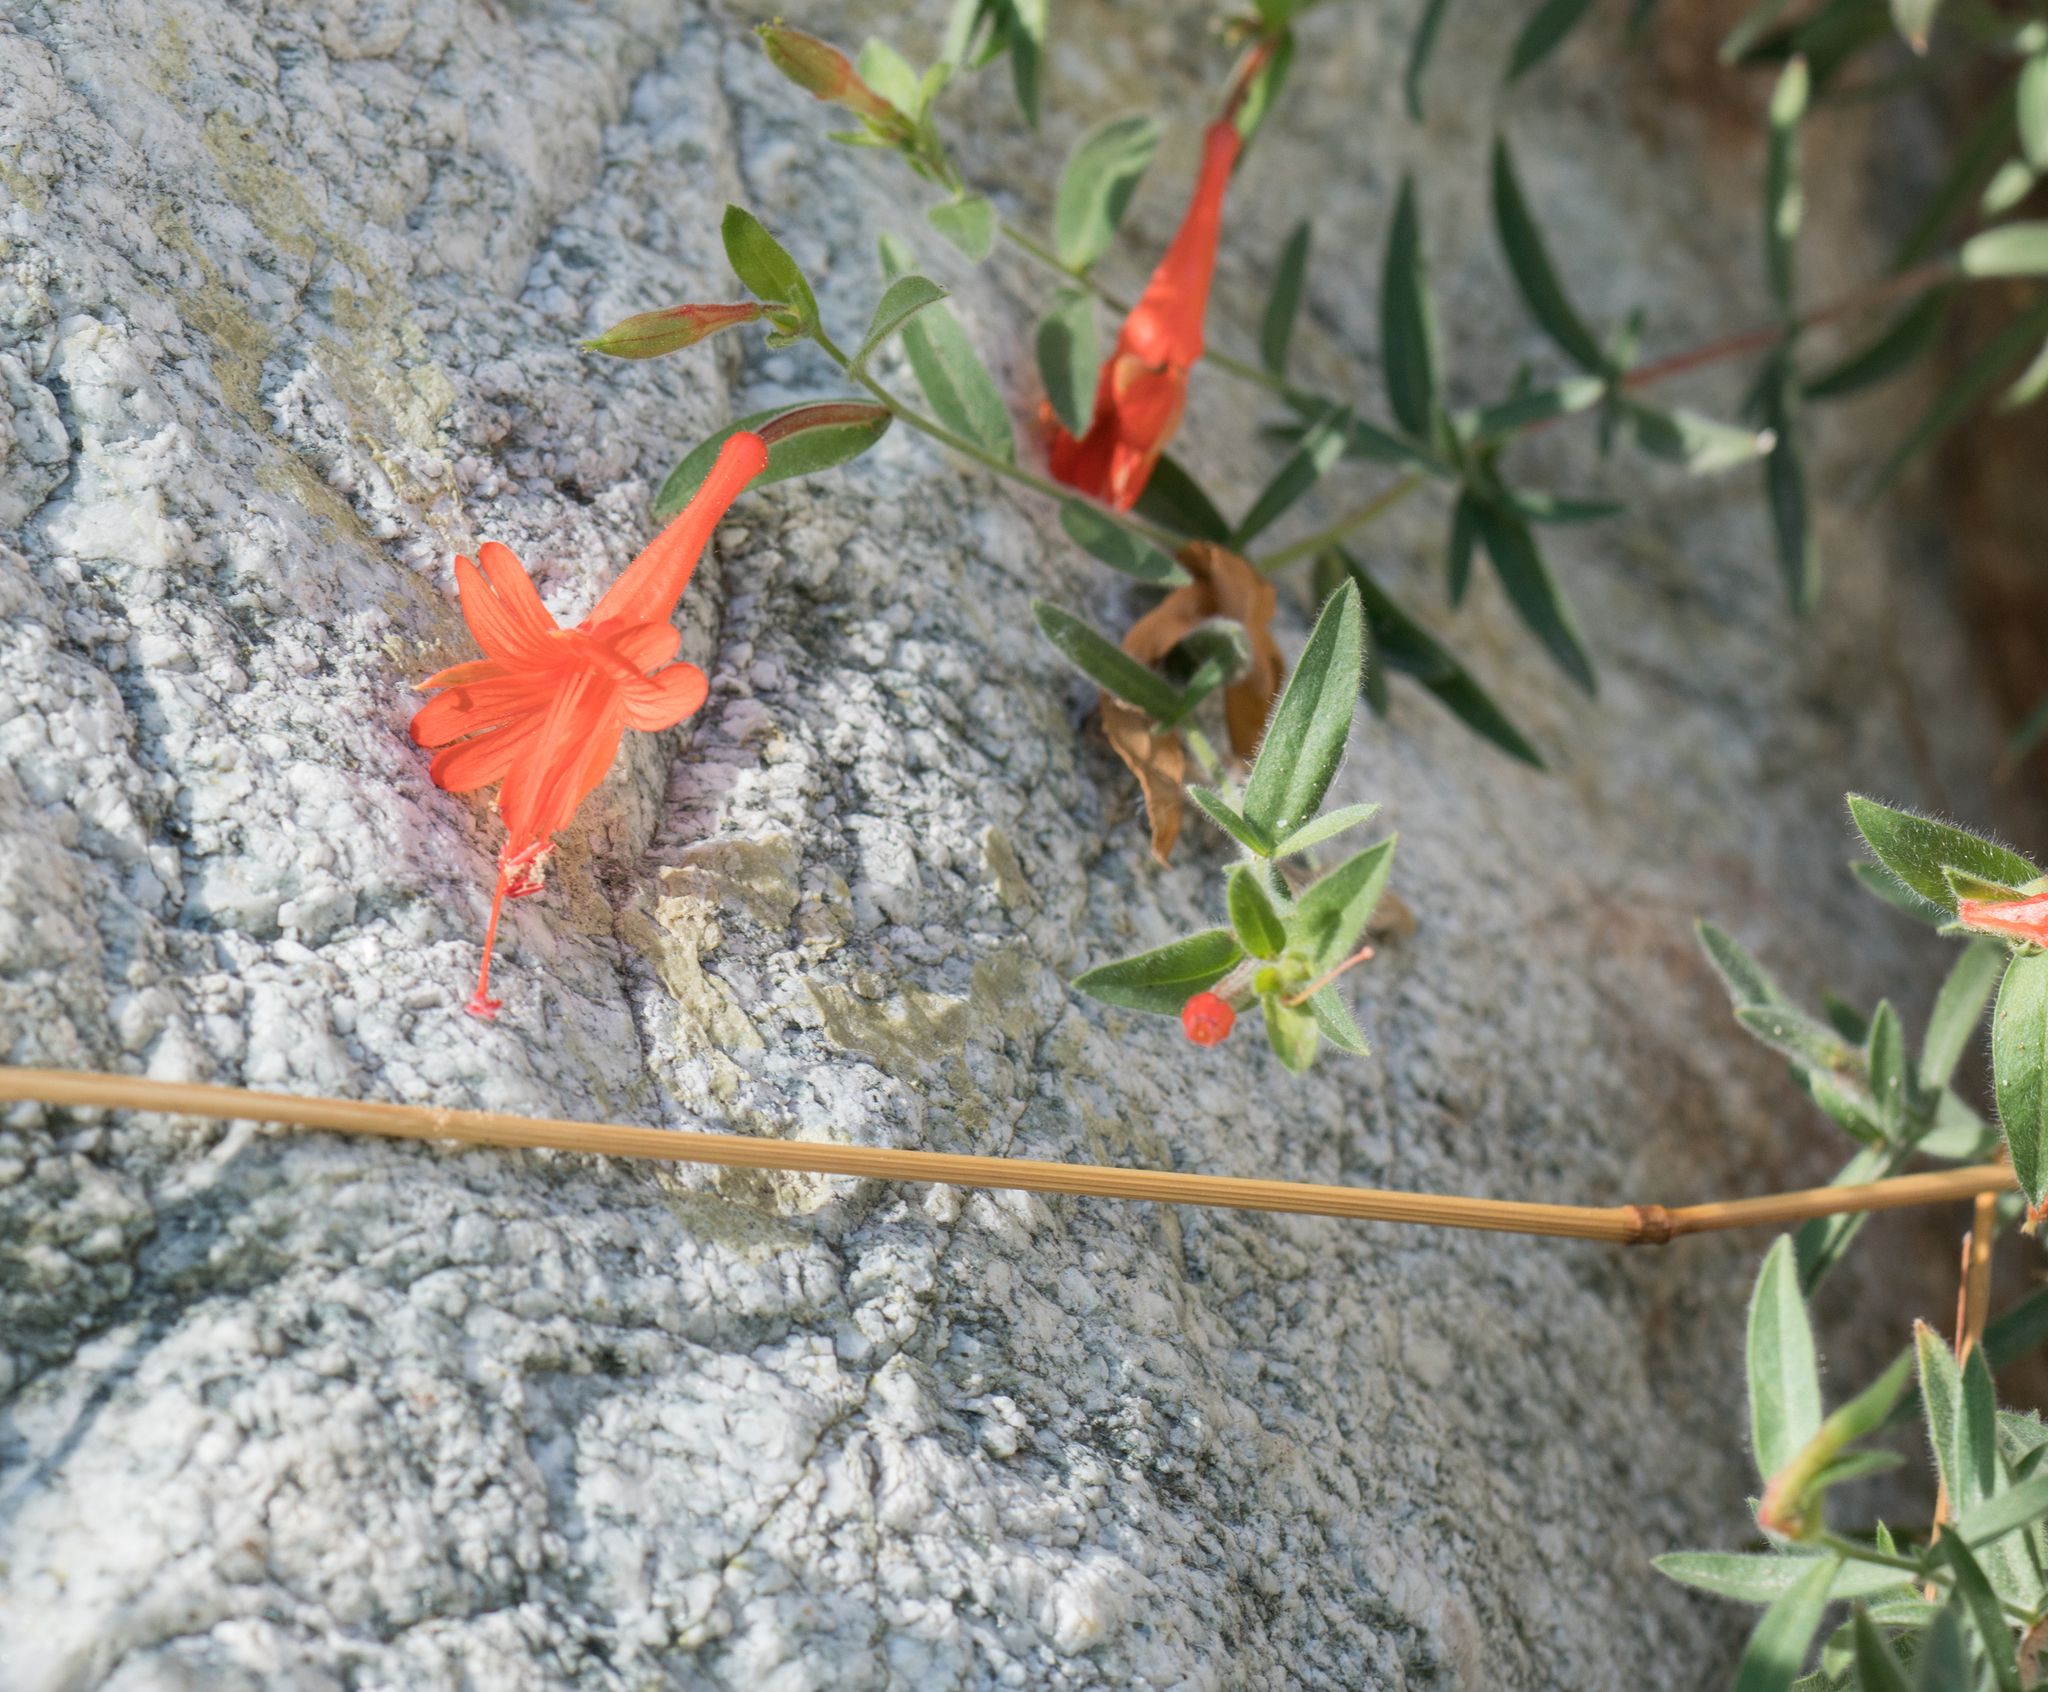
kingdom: Plantae
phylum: Tracheophyta
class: Magnoliopsida
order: Myrtales
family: Onagraceae
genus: Epilobium
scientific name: Epilobium canum
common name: California-fuchsia
